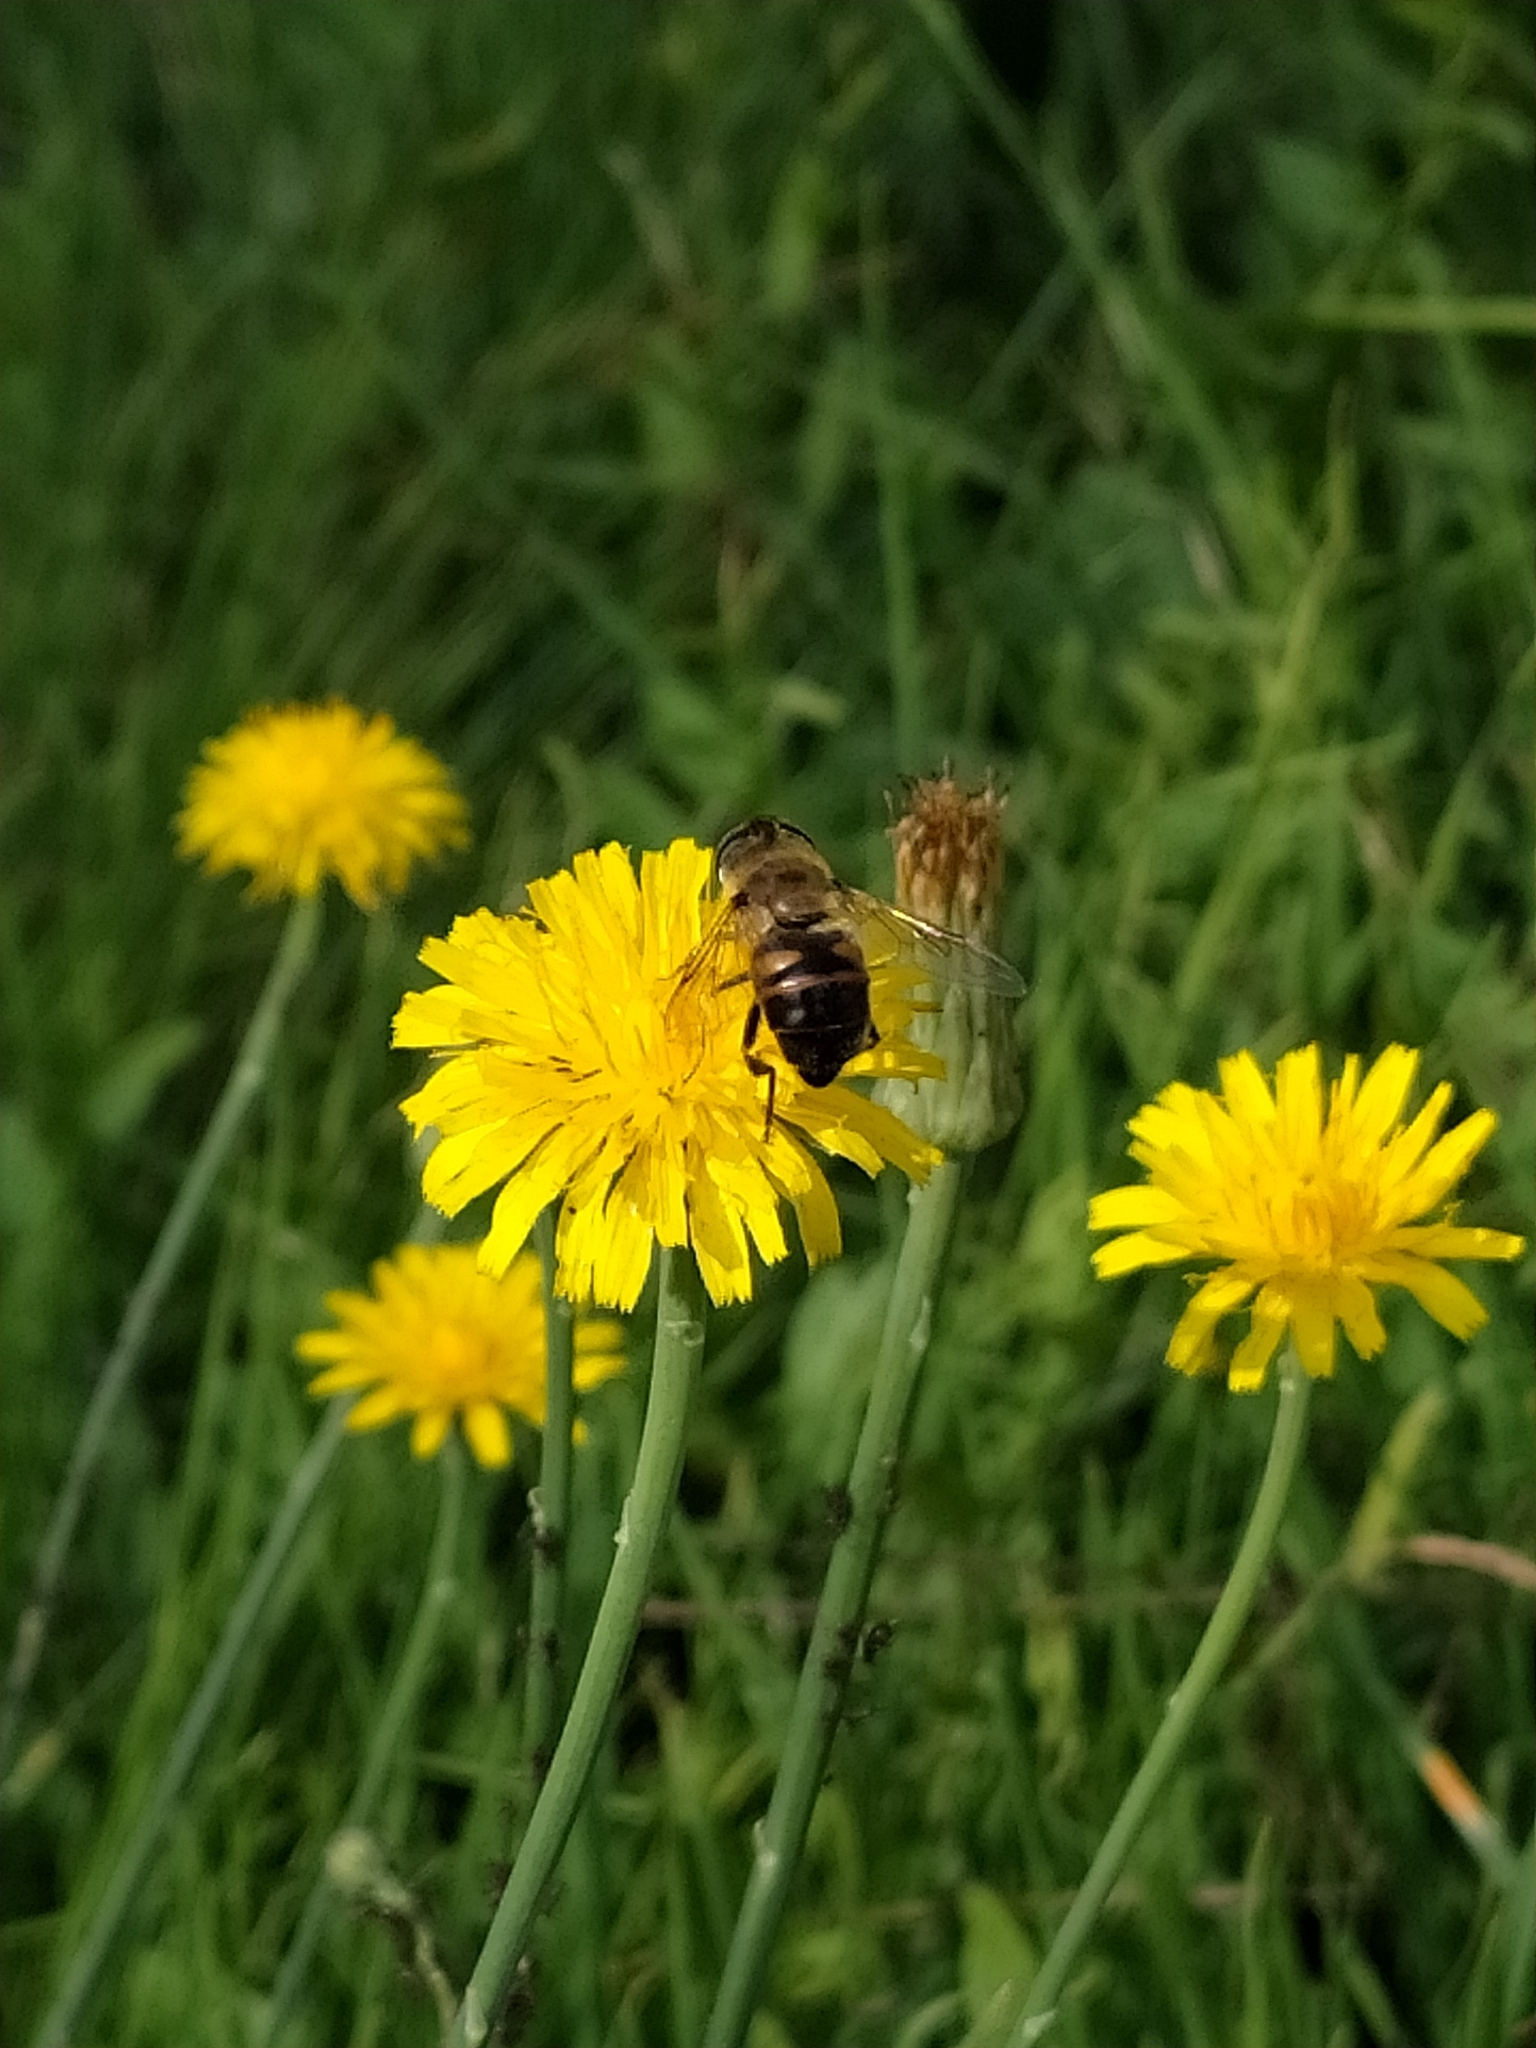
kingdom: Animalia
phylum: Arthropoda
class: Insecta
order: Diptera
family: Syrphidae
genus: Eristalis
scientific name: Eristalis tenax
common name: Drone fly
